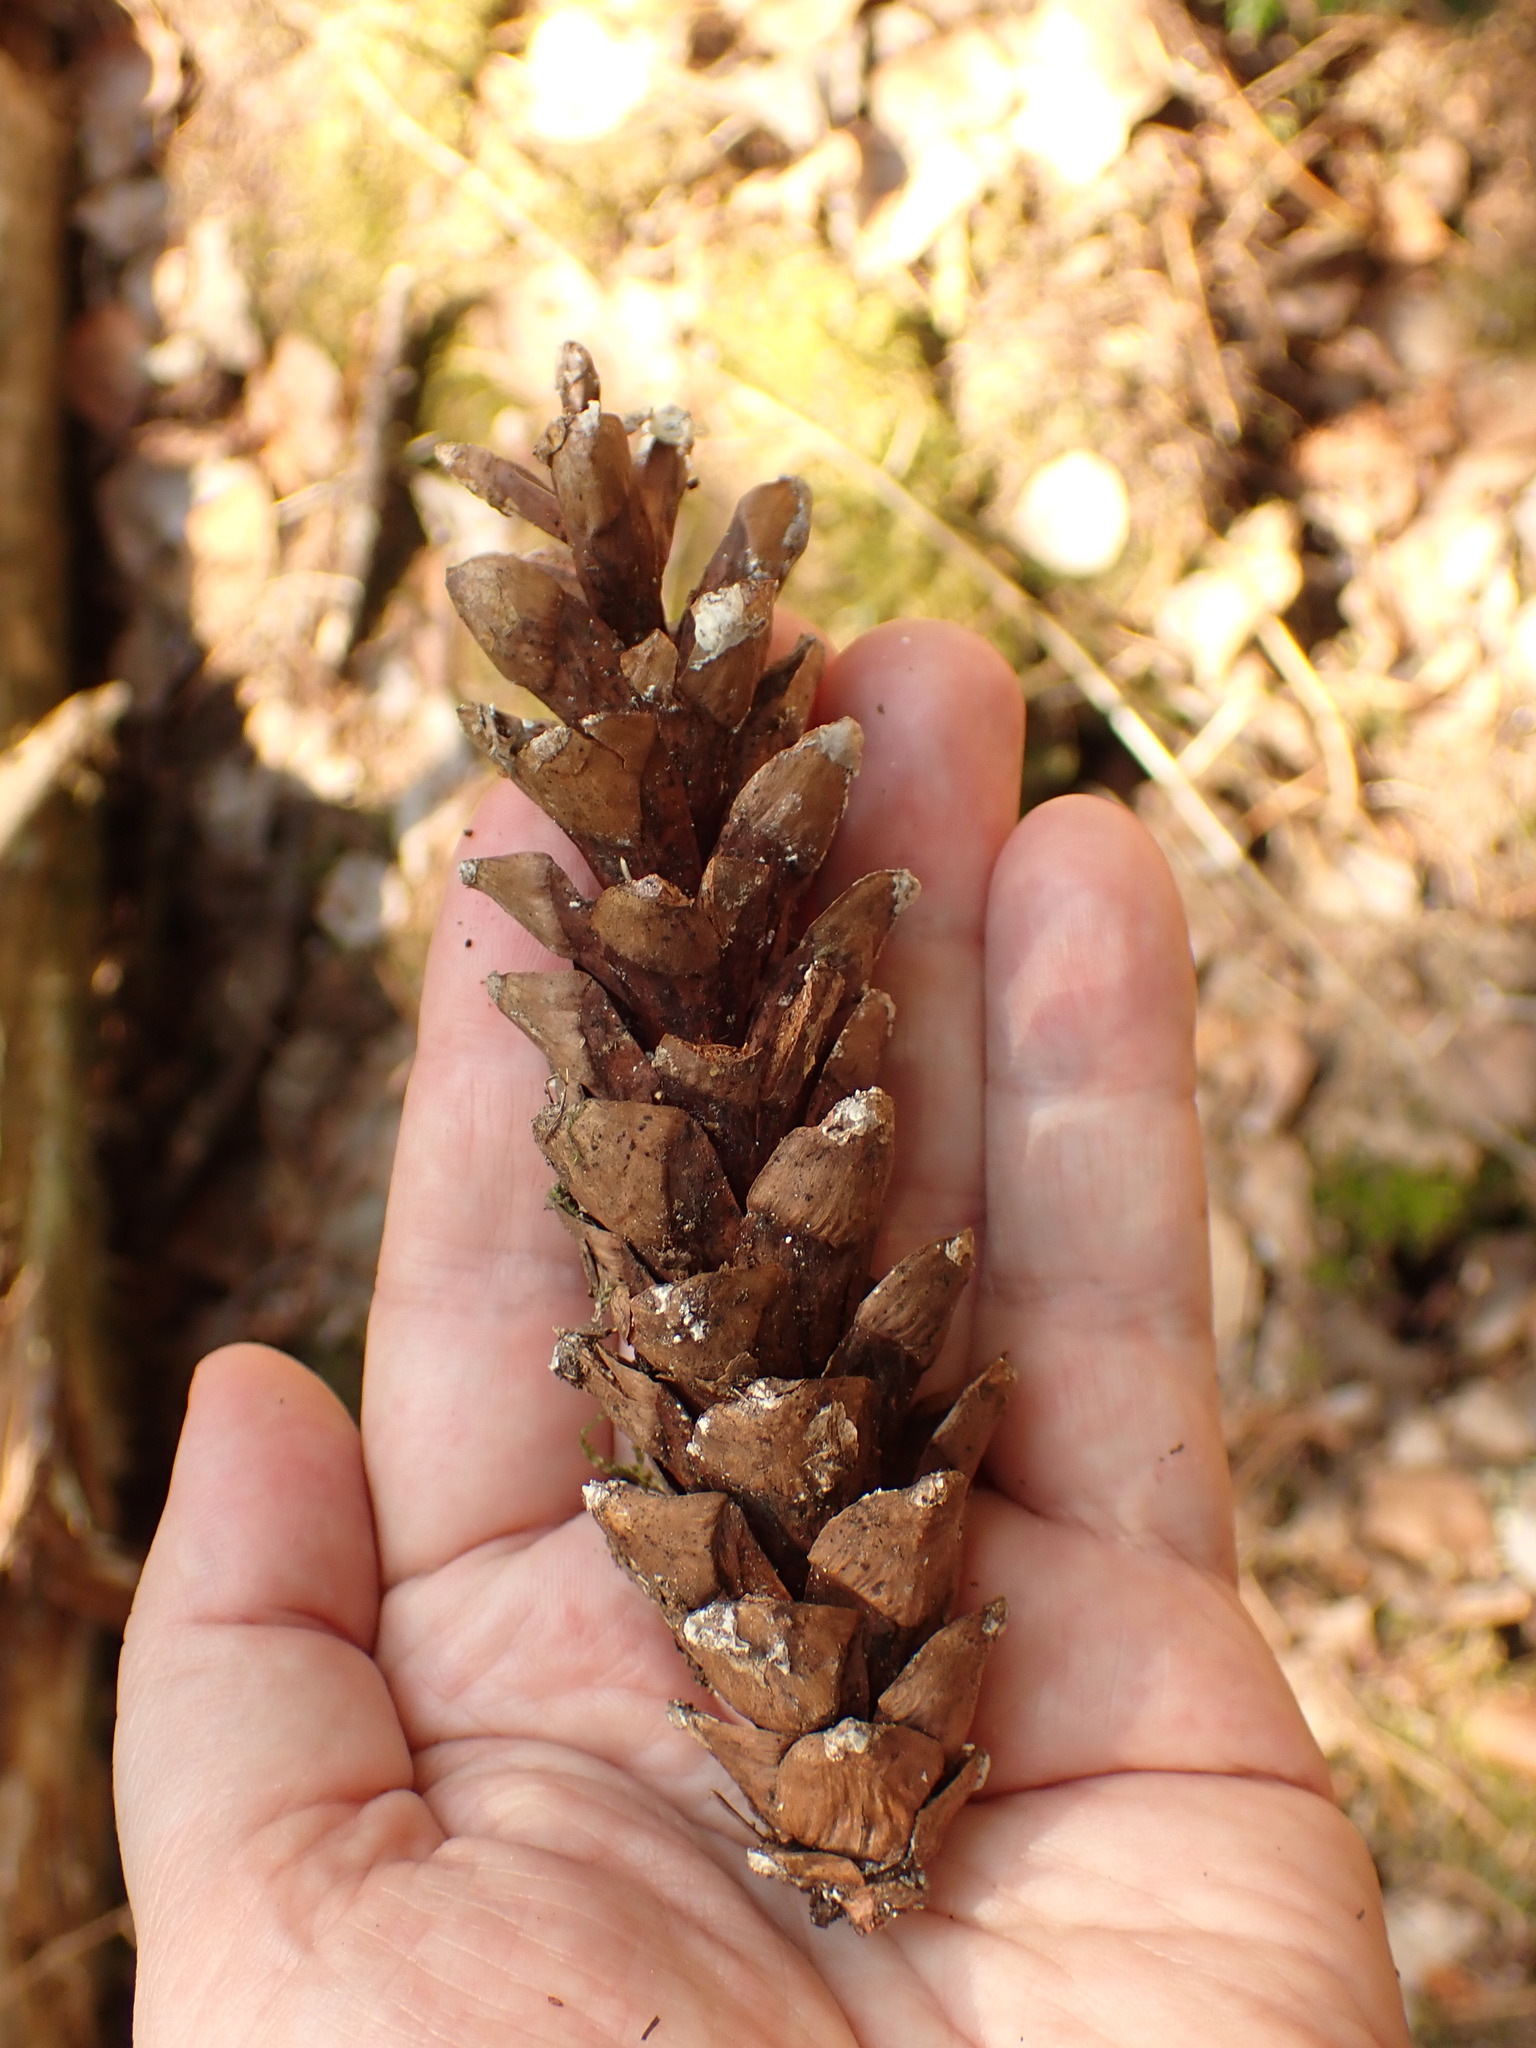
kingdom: Plantae
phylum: Tracheophyta
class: Pinopsida
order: Pinales
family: Pinaceae
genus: Pinus
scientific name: Pinus strobus
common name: Weymouth pine
